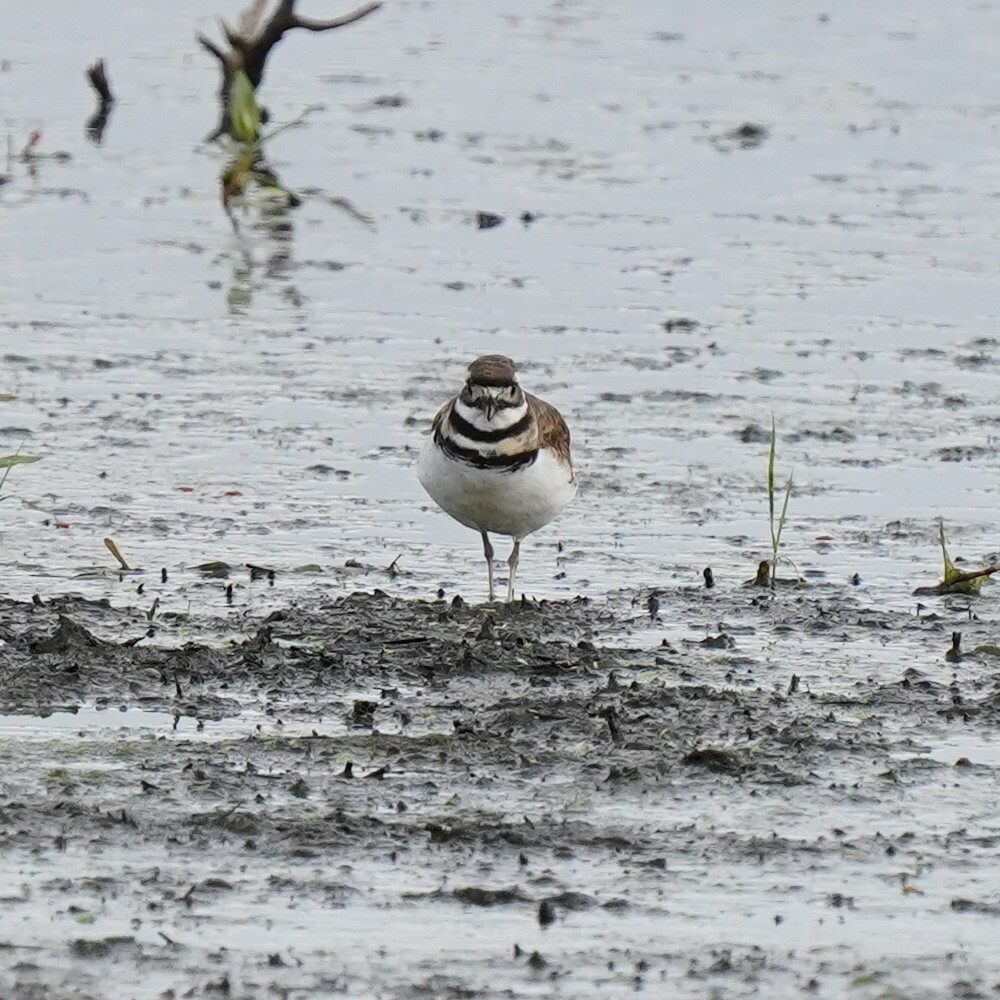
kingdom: Animalia
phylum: Chordata
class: Aves
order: Charadriiformes
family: Charadriidae
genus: Charadrius
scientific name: Charadrius vociferus
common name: Killdeer
